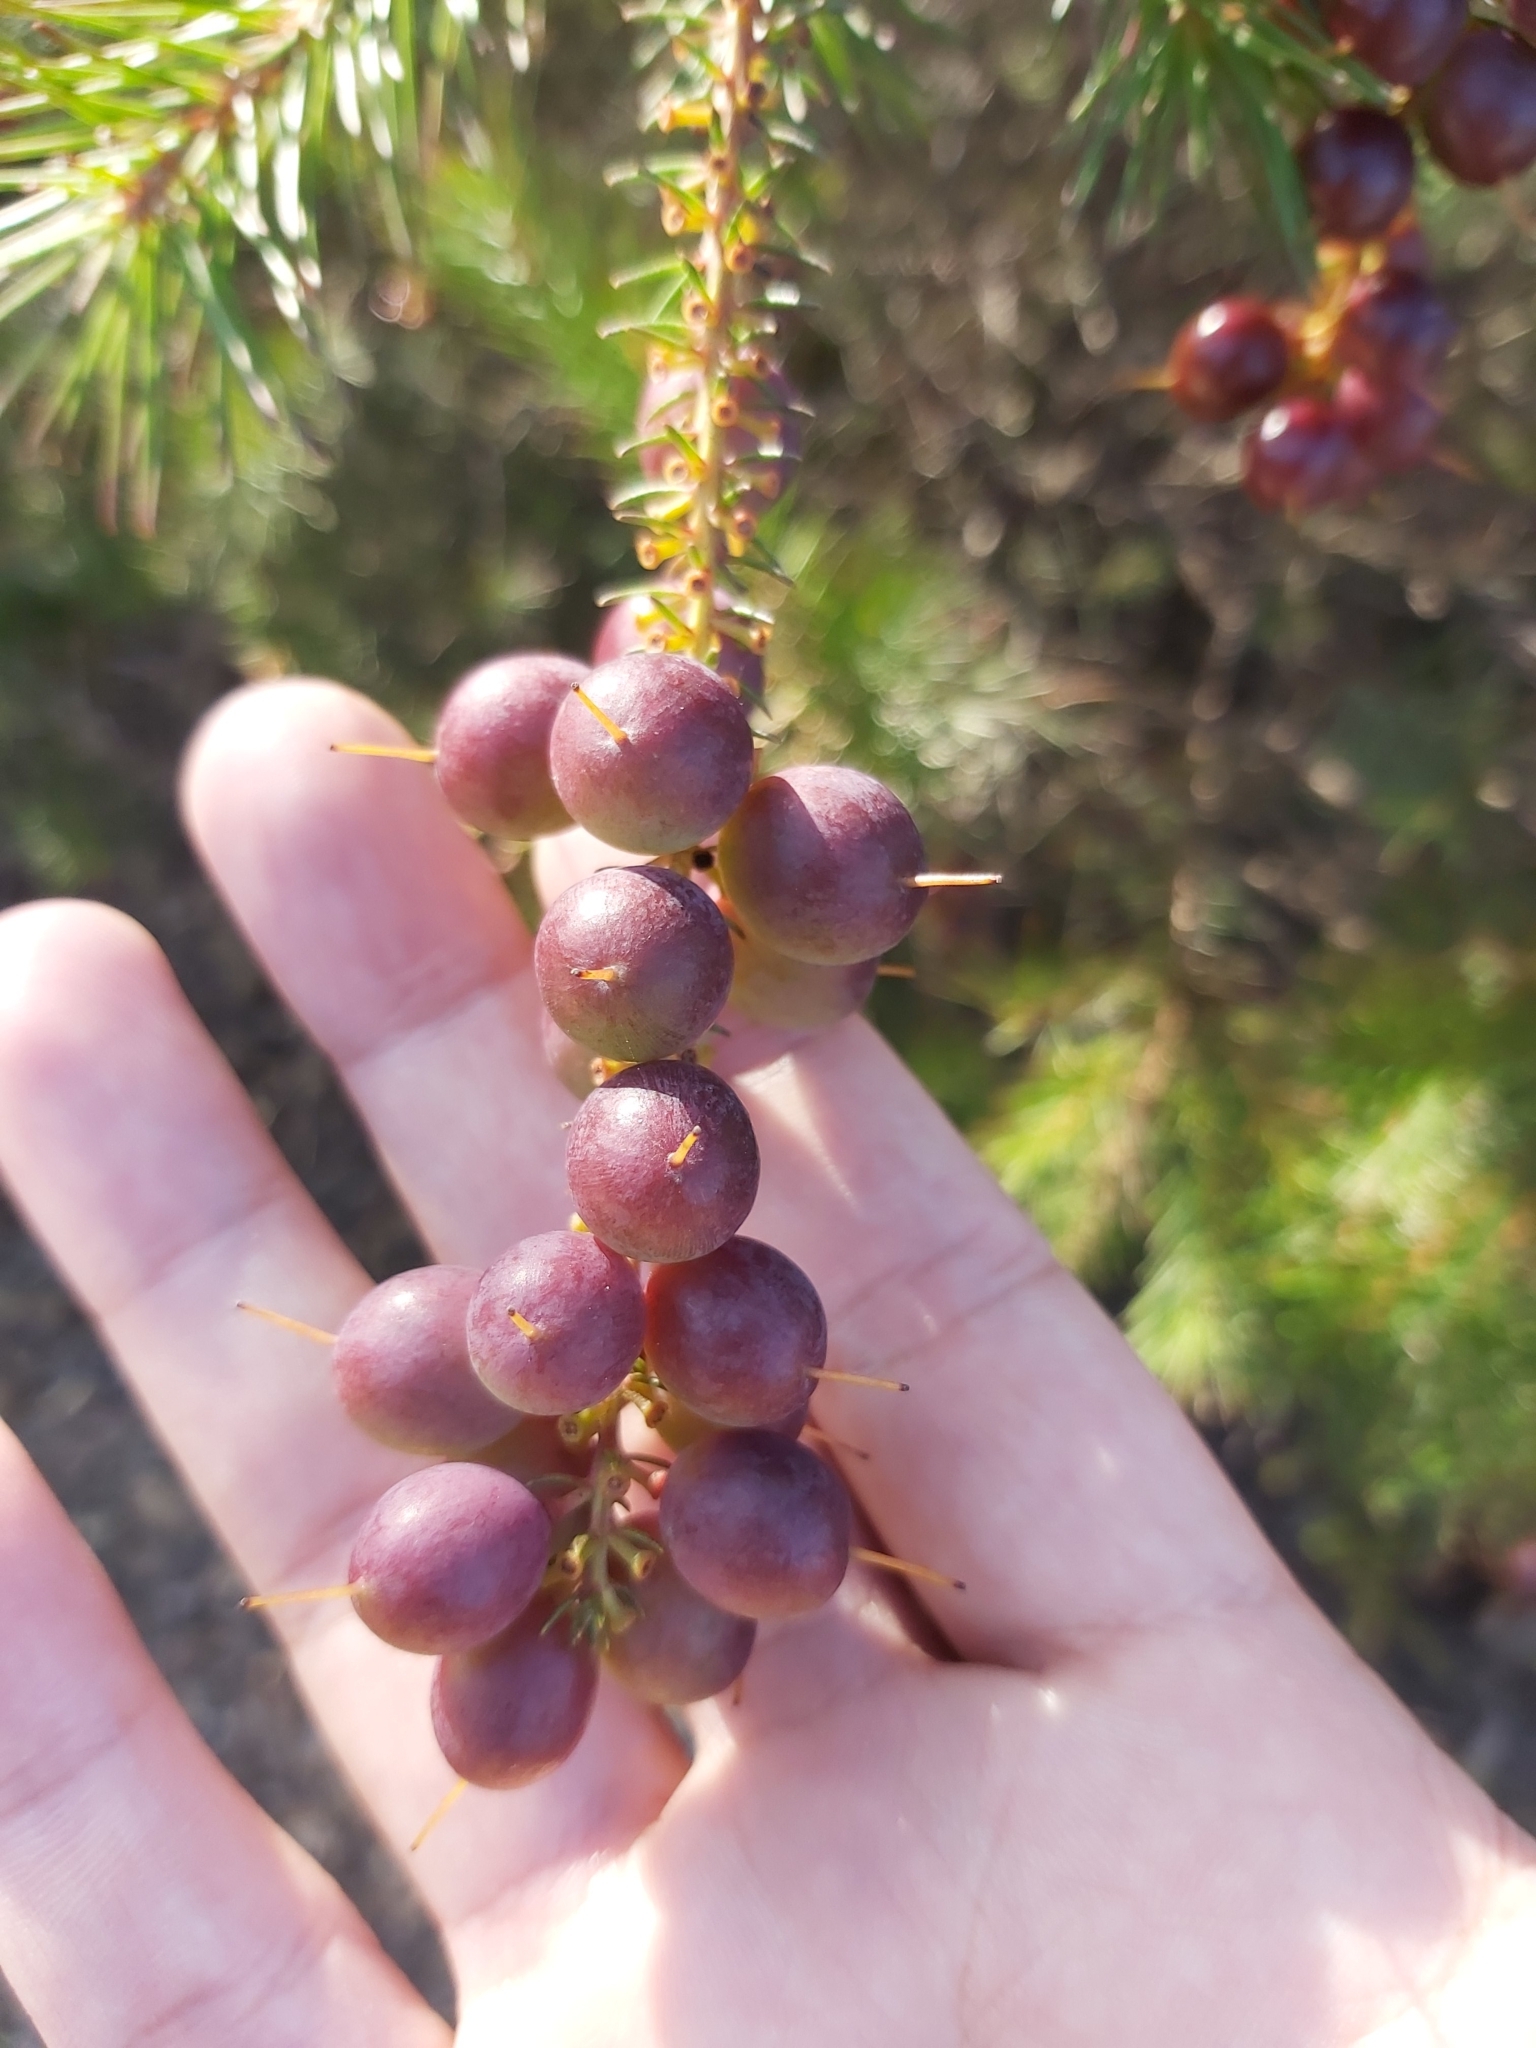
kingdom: Plantae
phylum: Tracheophyta
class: Magnoliopsida
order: Proteales
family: Proteaceae
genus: Persoonia
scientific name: Persoonia pinifolia
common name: Pine-leaf geebung
